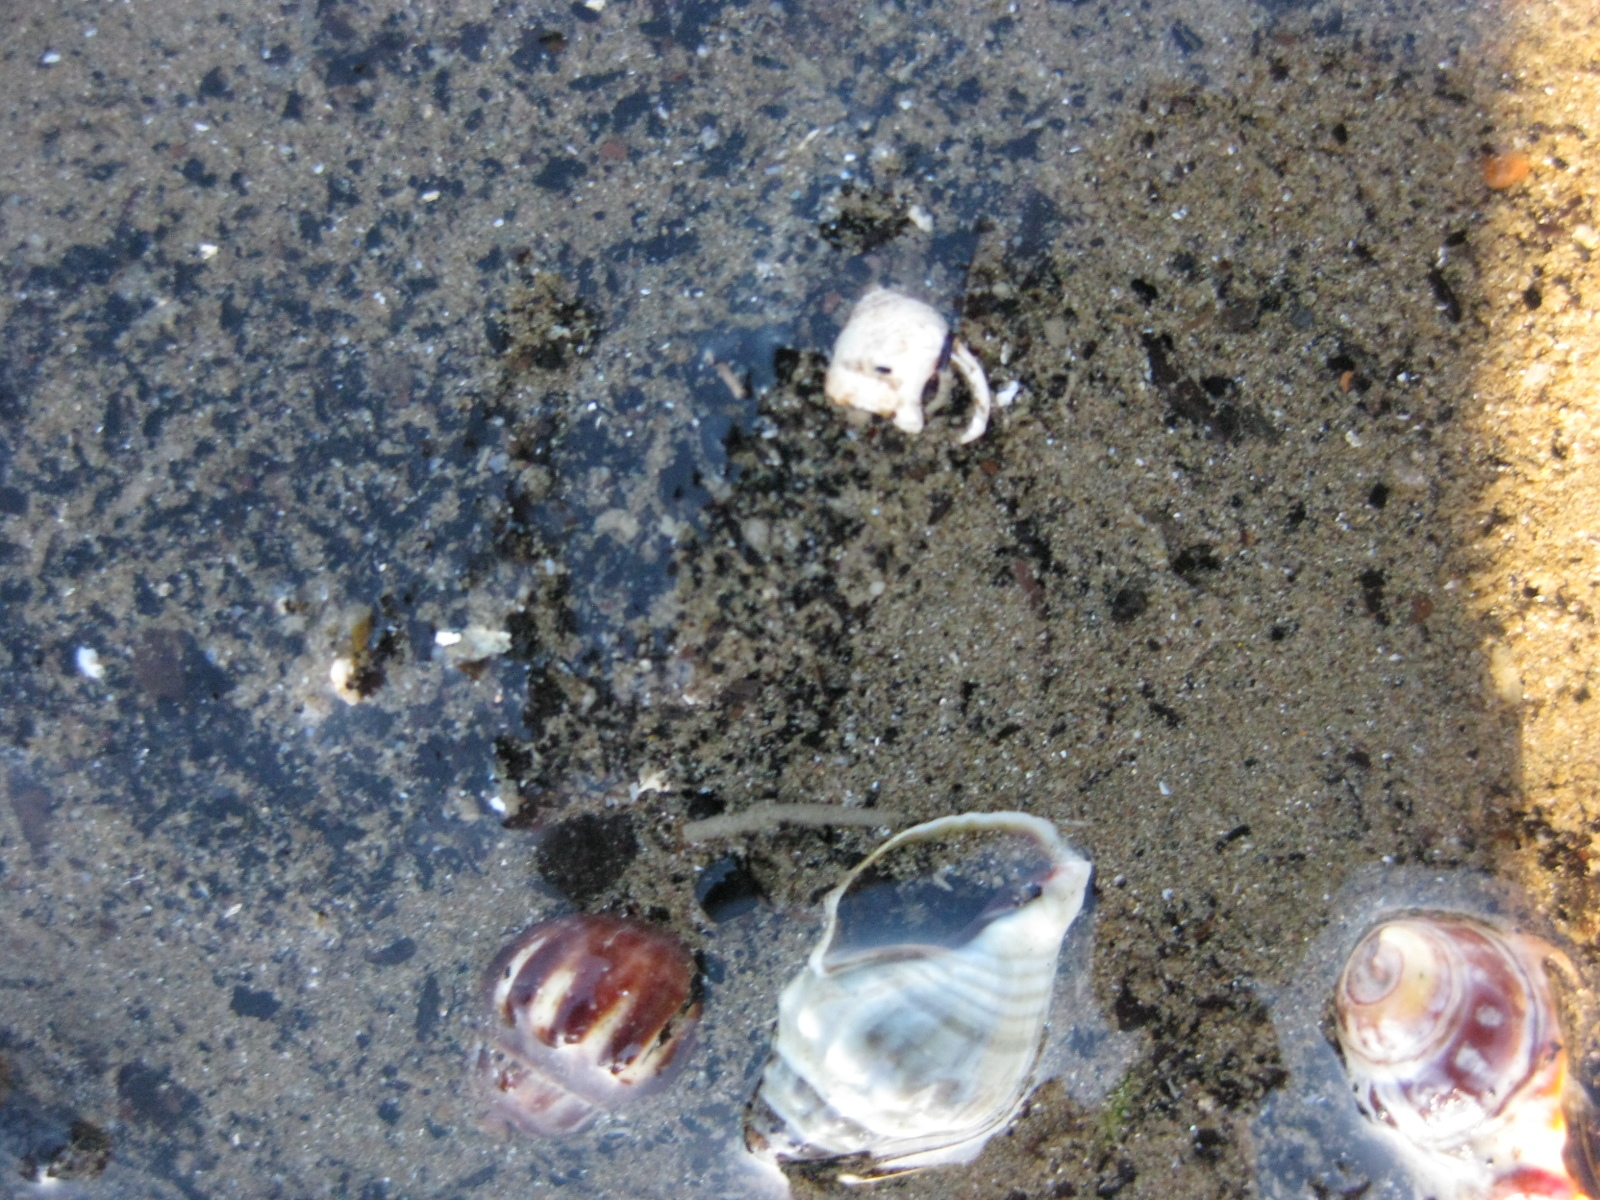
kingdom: Animalia
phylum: Mollusca
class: Gastropoda
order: Neogastropoda
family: Cominellidae
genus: Cominella
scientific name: Cominella glandiformis
